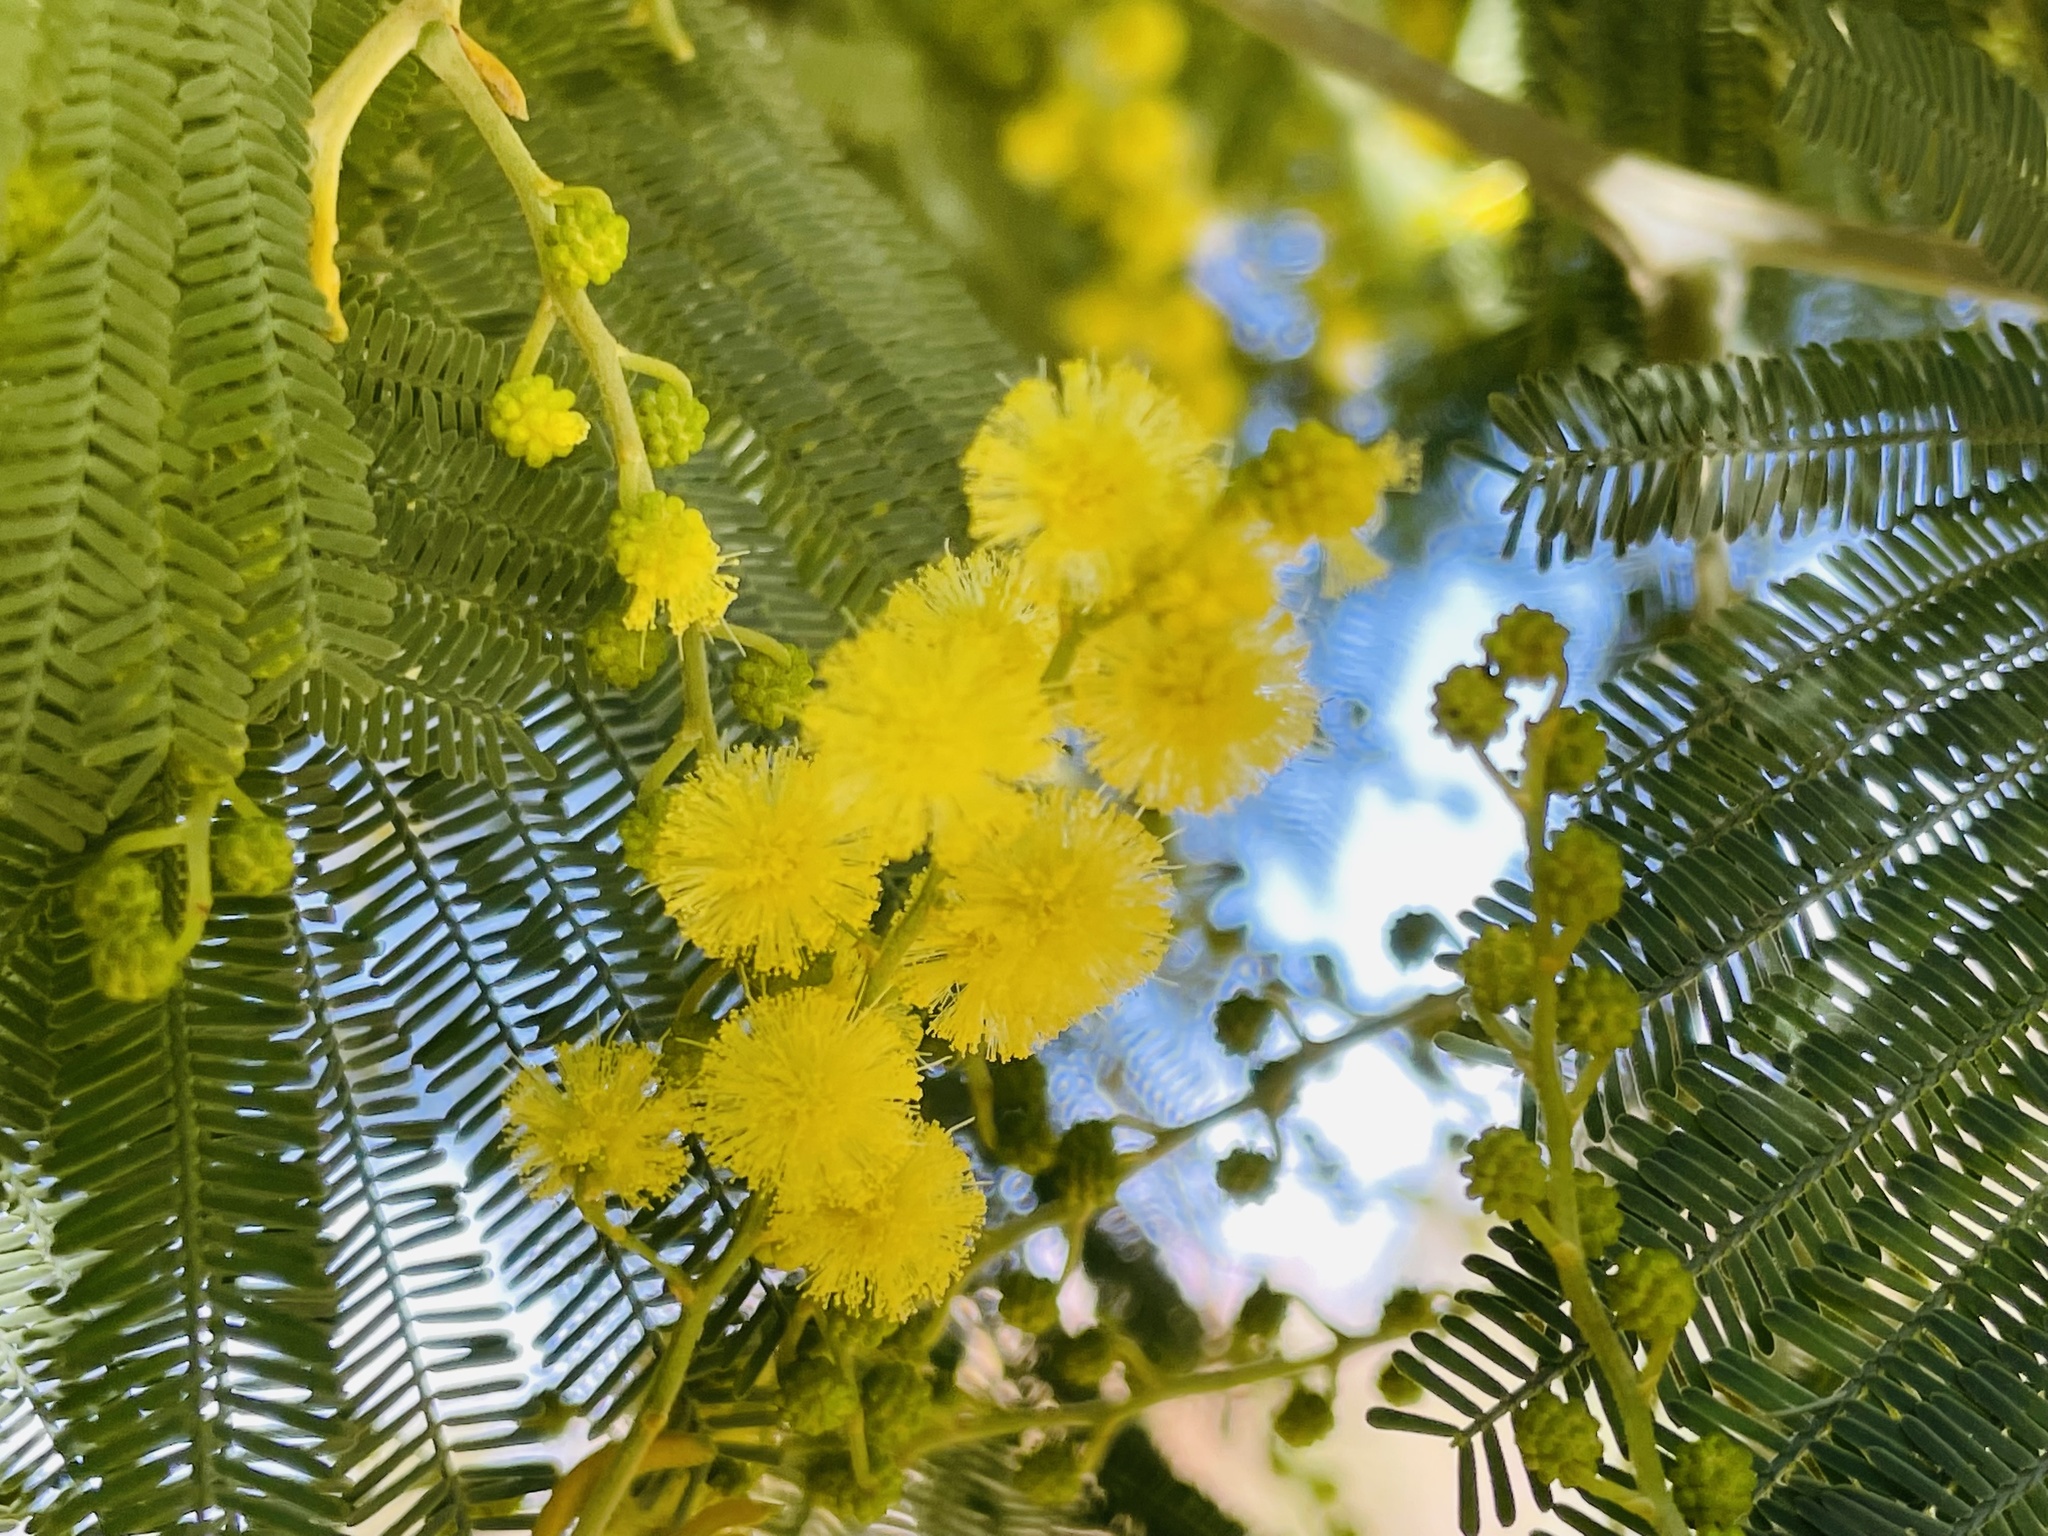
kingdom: Plantae
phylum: Tracheophyta
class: Magnoliopsida
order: Fabales
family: Fabaceae
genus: Acacia
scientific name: Acacia dealbata
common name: Silver wattle
